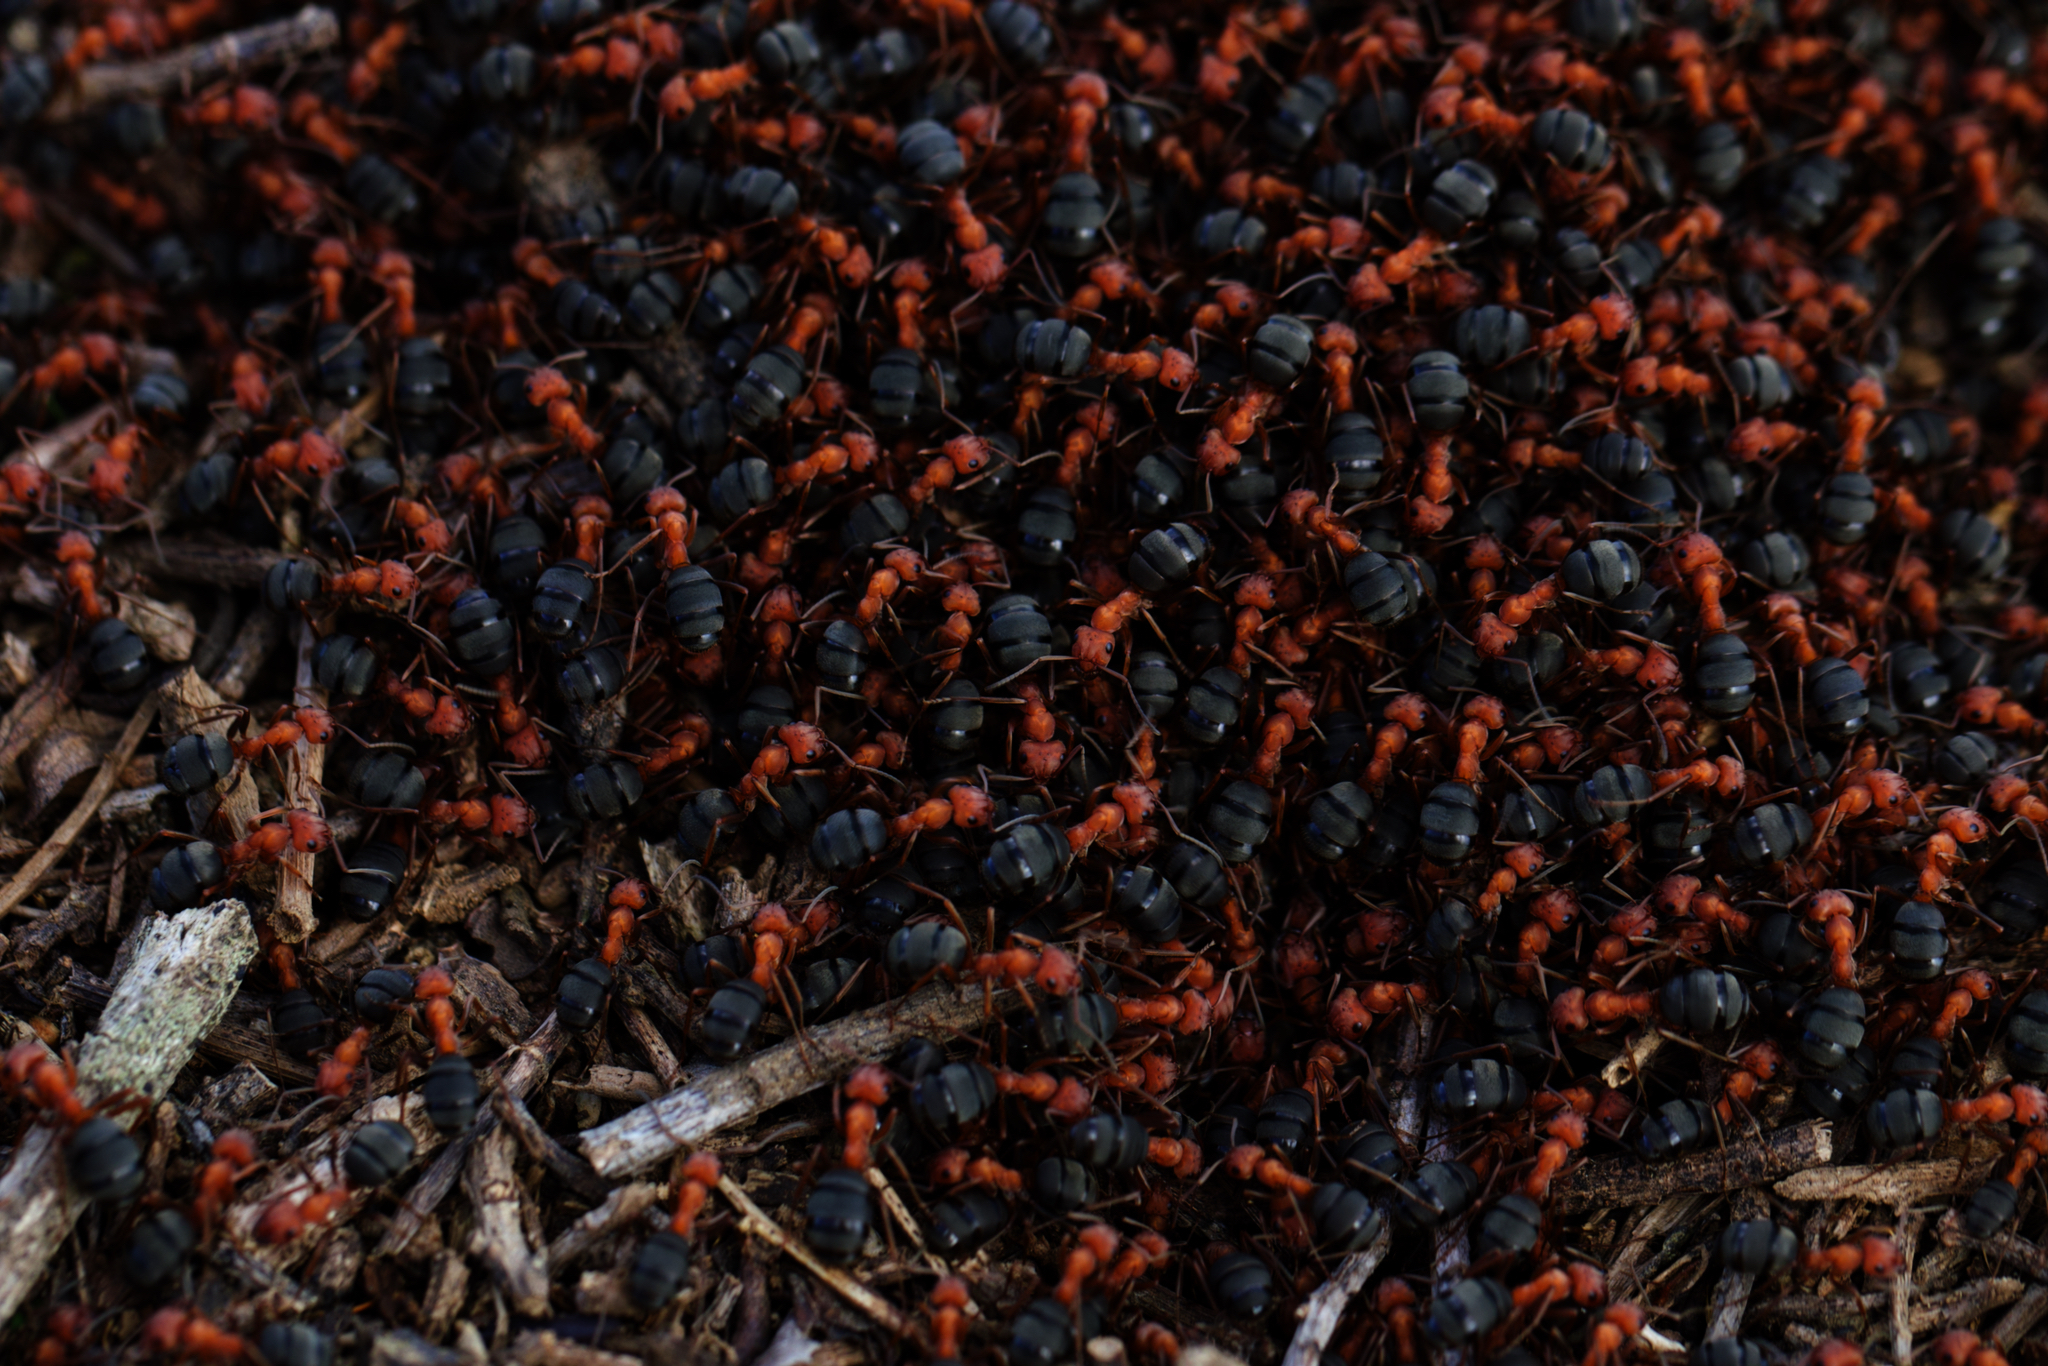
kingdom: Animalia
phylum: Arthropoda
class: Insecta
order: Hymenoptera
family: Formicidae
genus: Formica
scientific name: Formica integroides
